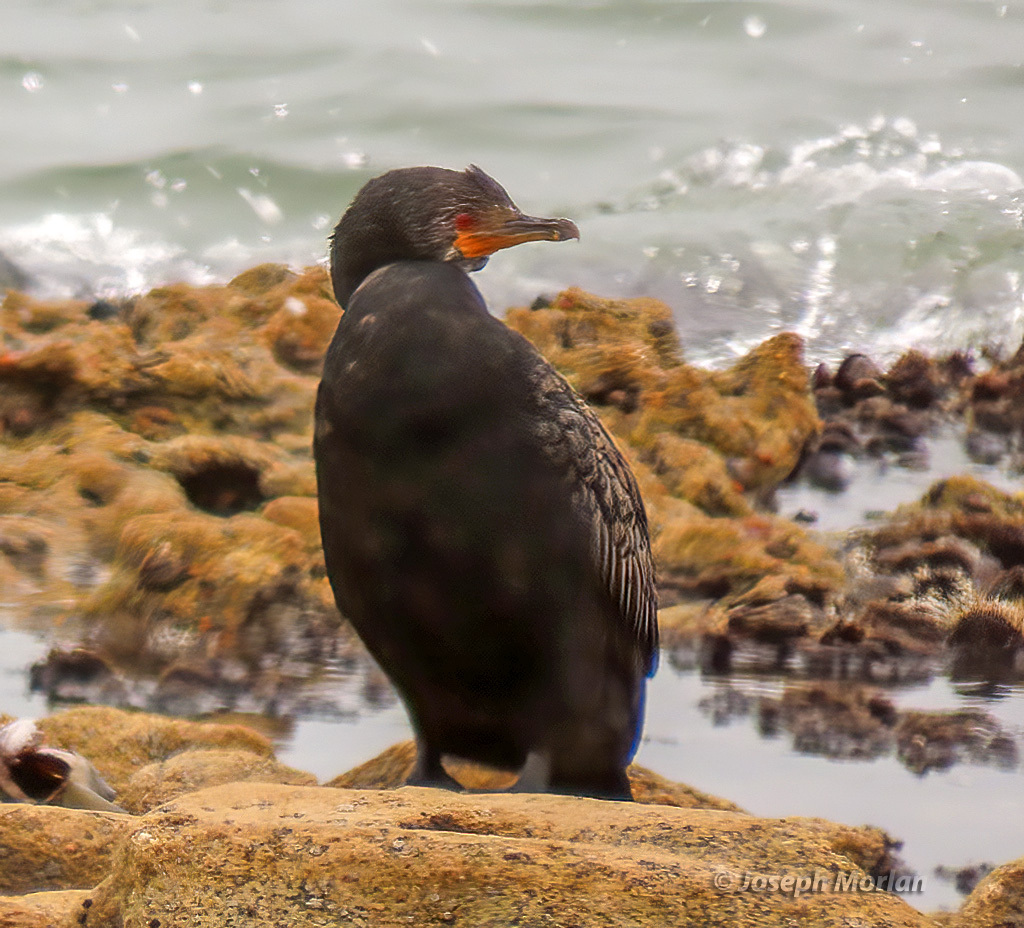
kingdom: Animalia
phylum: Chordata
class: Aves
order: Suliformes
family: Phalacrocoracidae
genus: Microcarbo
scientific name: Microcarbo coronatus
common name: Crowned cormorant
